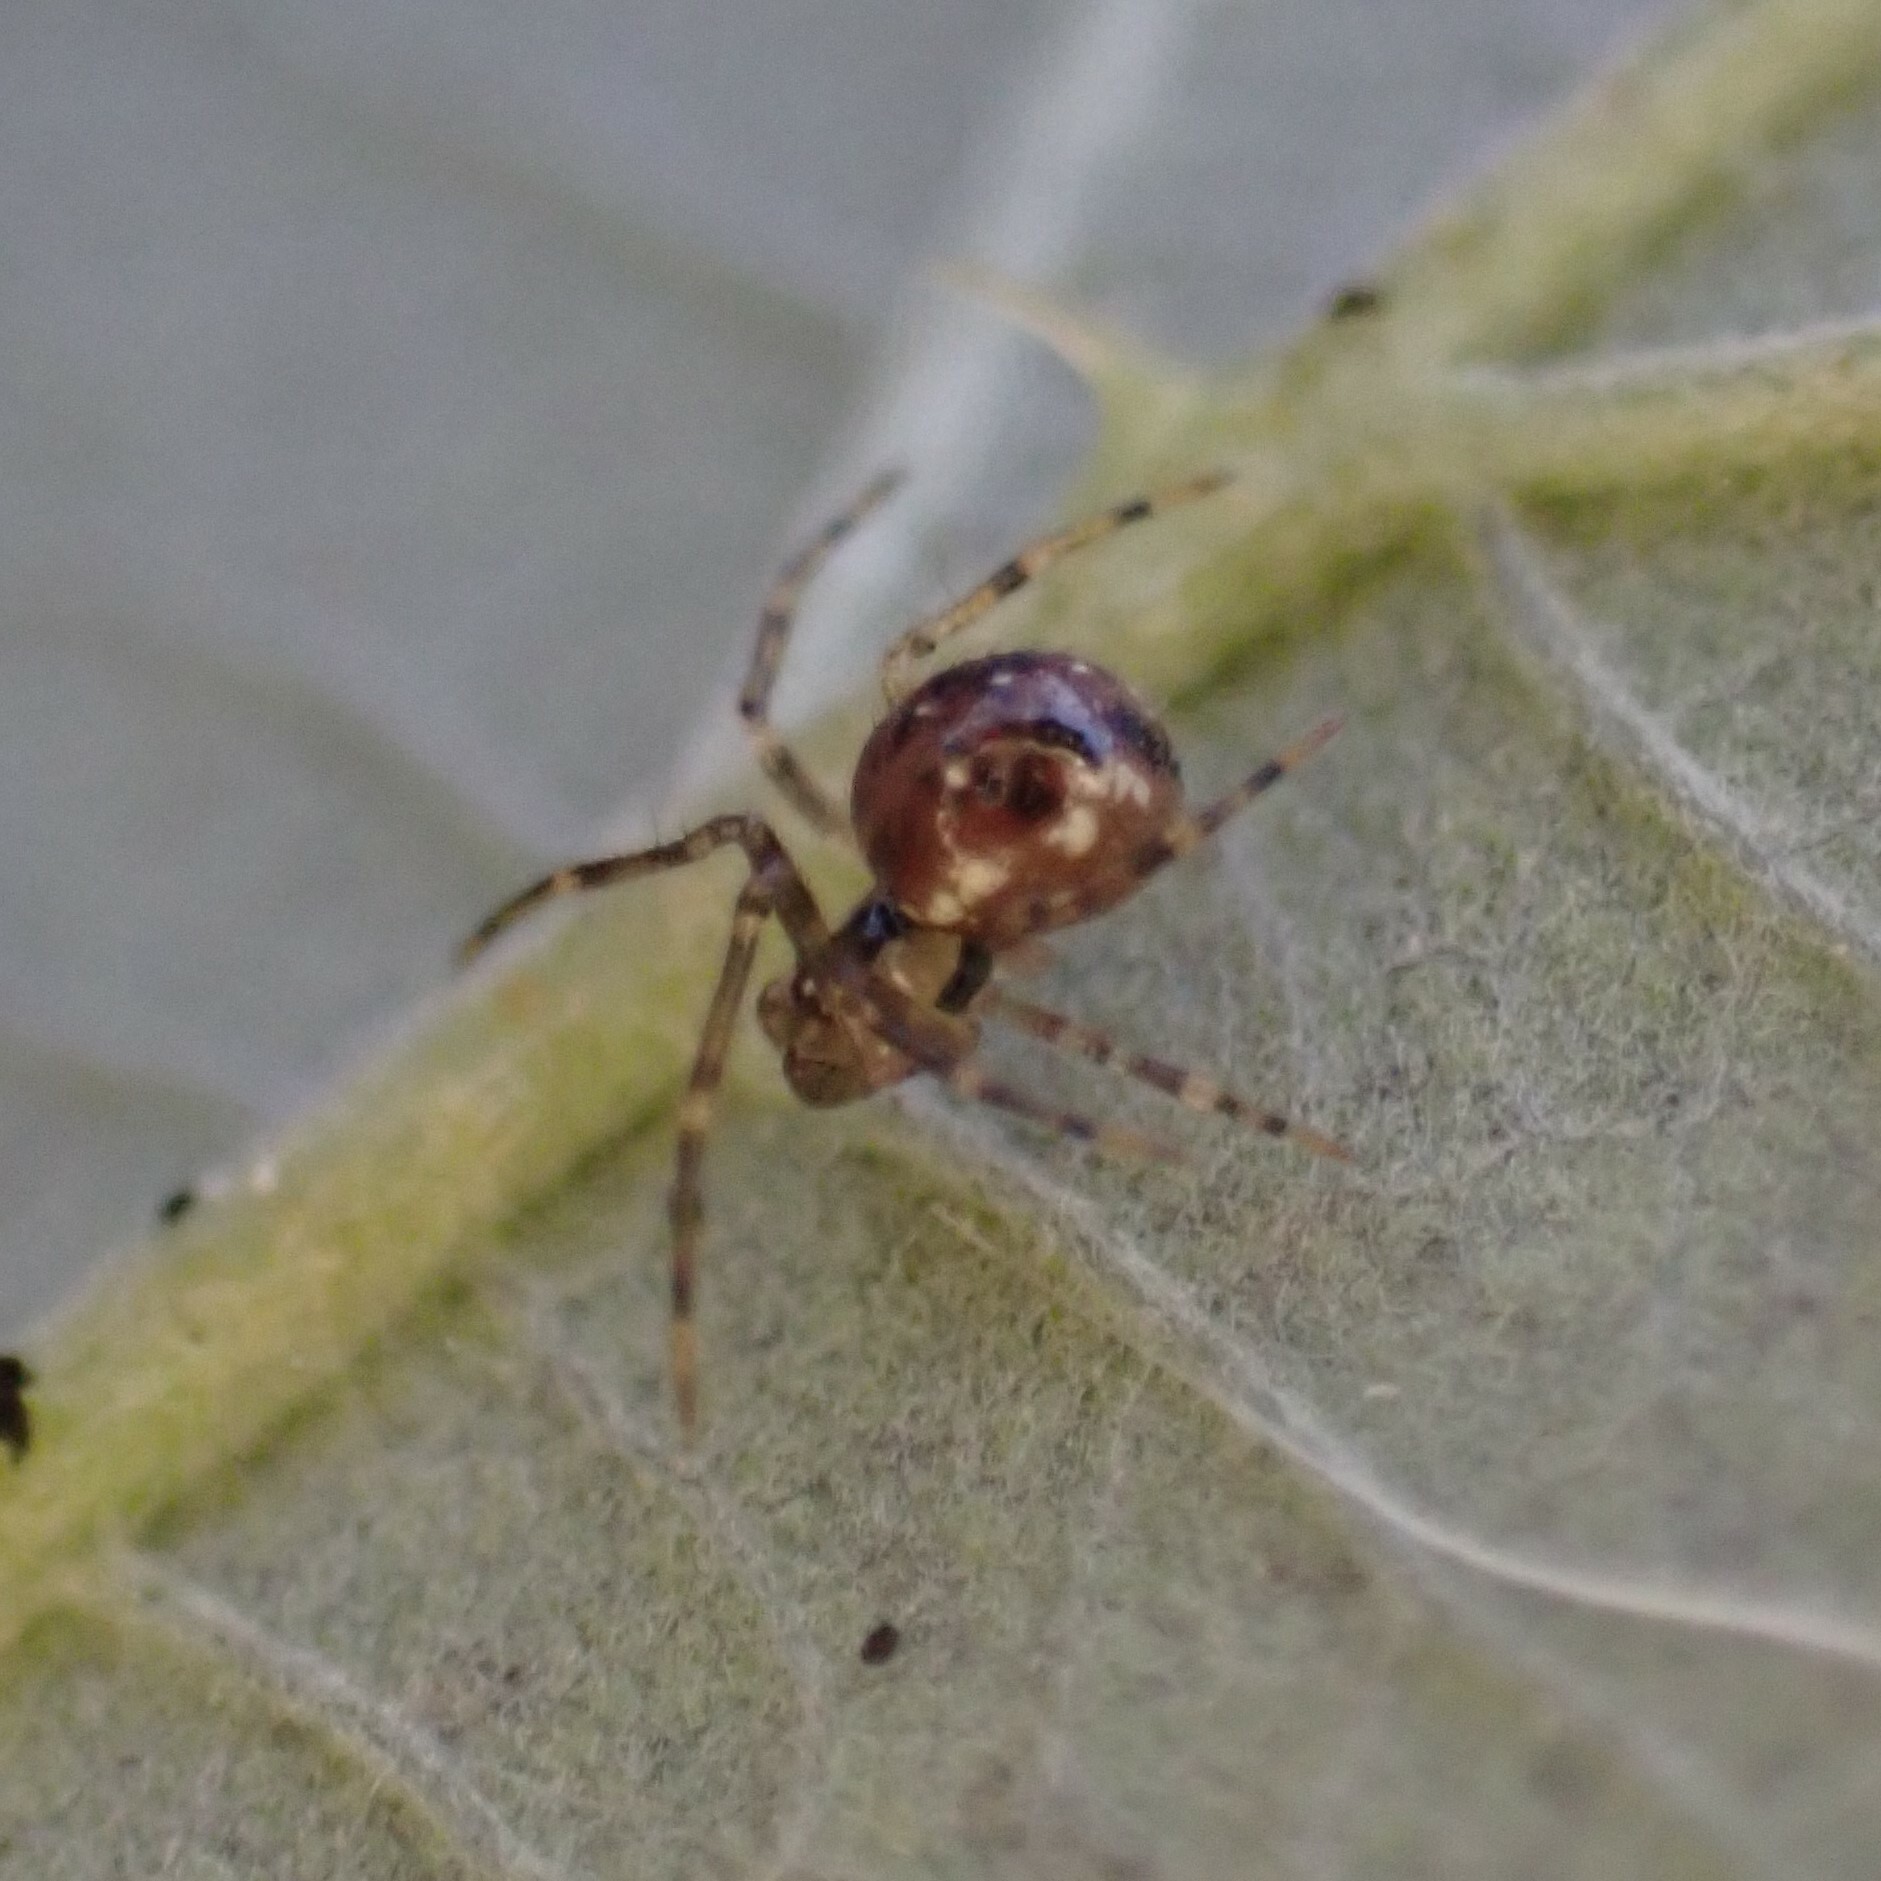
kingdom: Animalia
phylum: Arthropoda
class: Arachnida
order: Araneae
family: Theridiidae
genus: Rugathodes
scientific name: Rugathodes sexpunctatus
